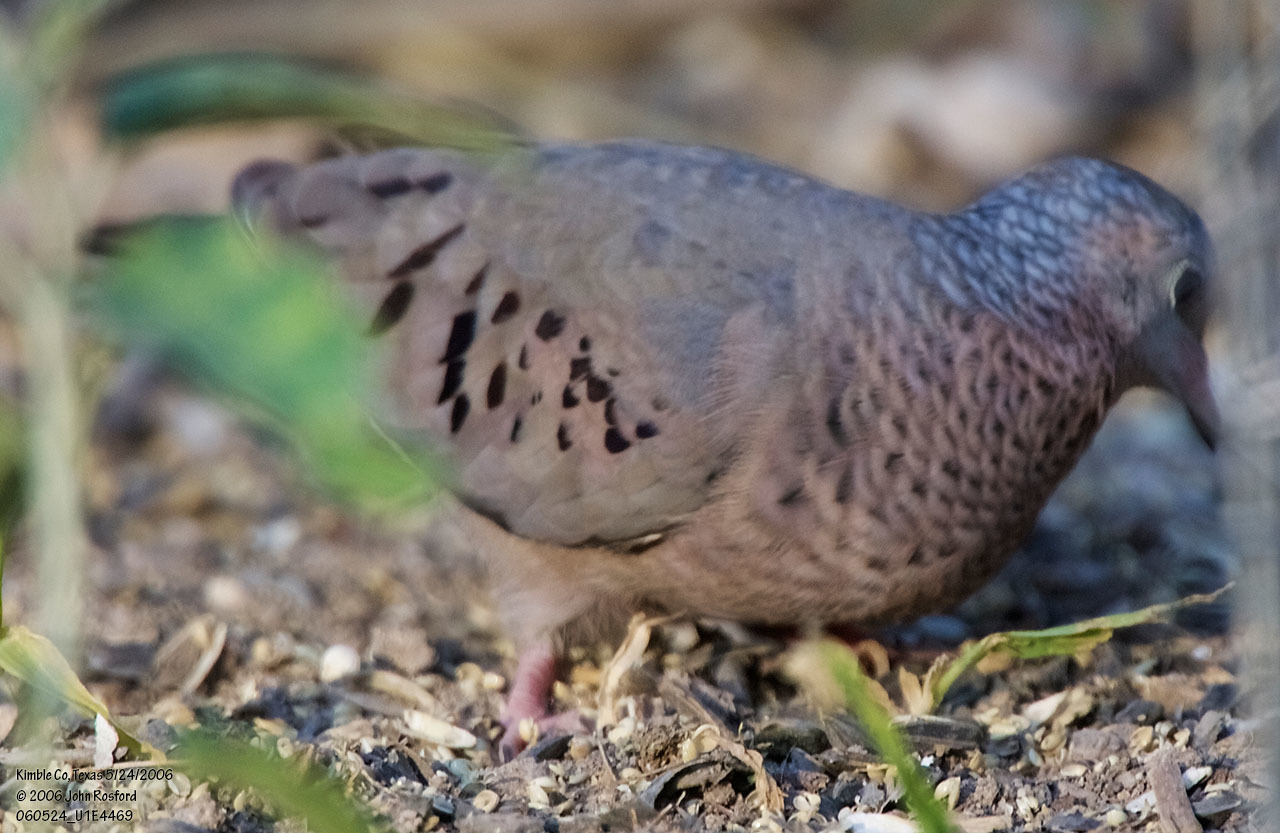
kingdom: Animalia
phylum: Chordata
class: Aves
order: Columbiformes
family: Columbidae
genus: Columbina
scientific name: Columbina passerina
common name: Common ground-dove
